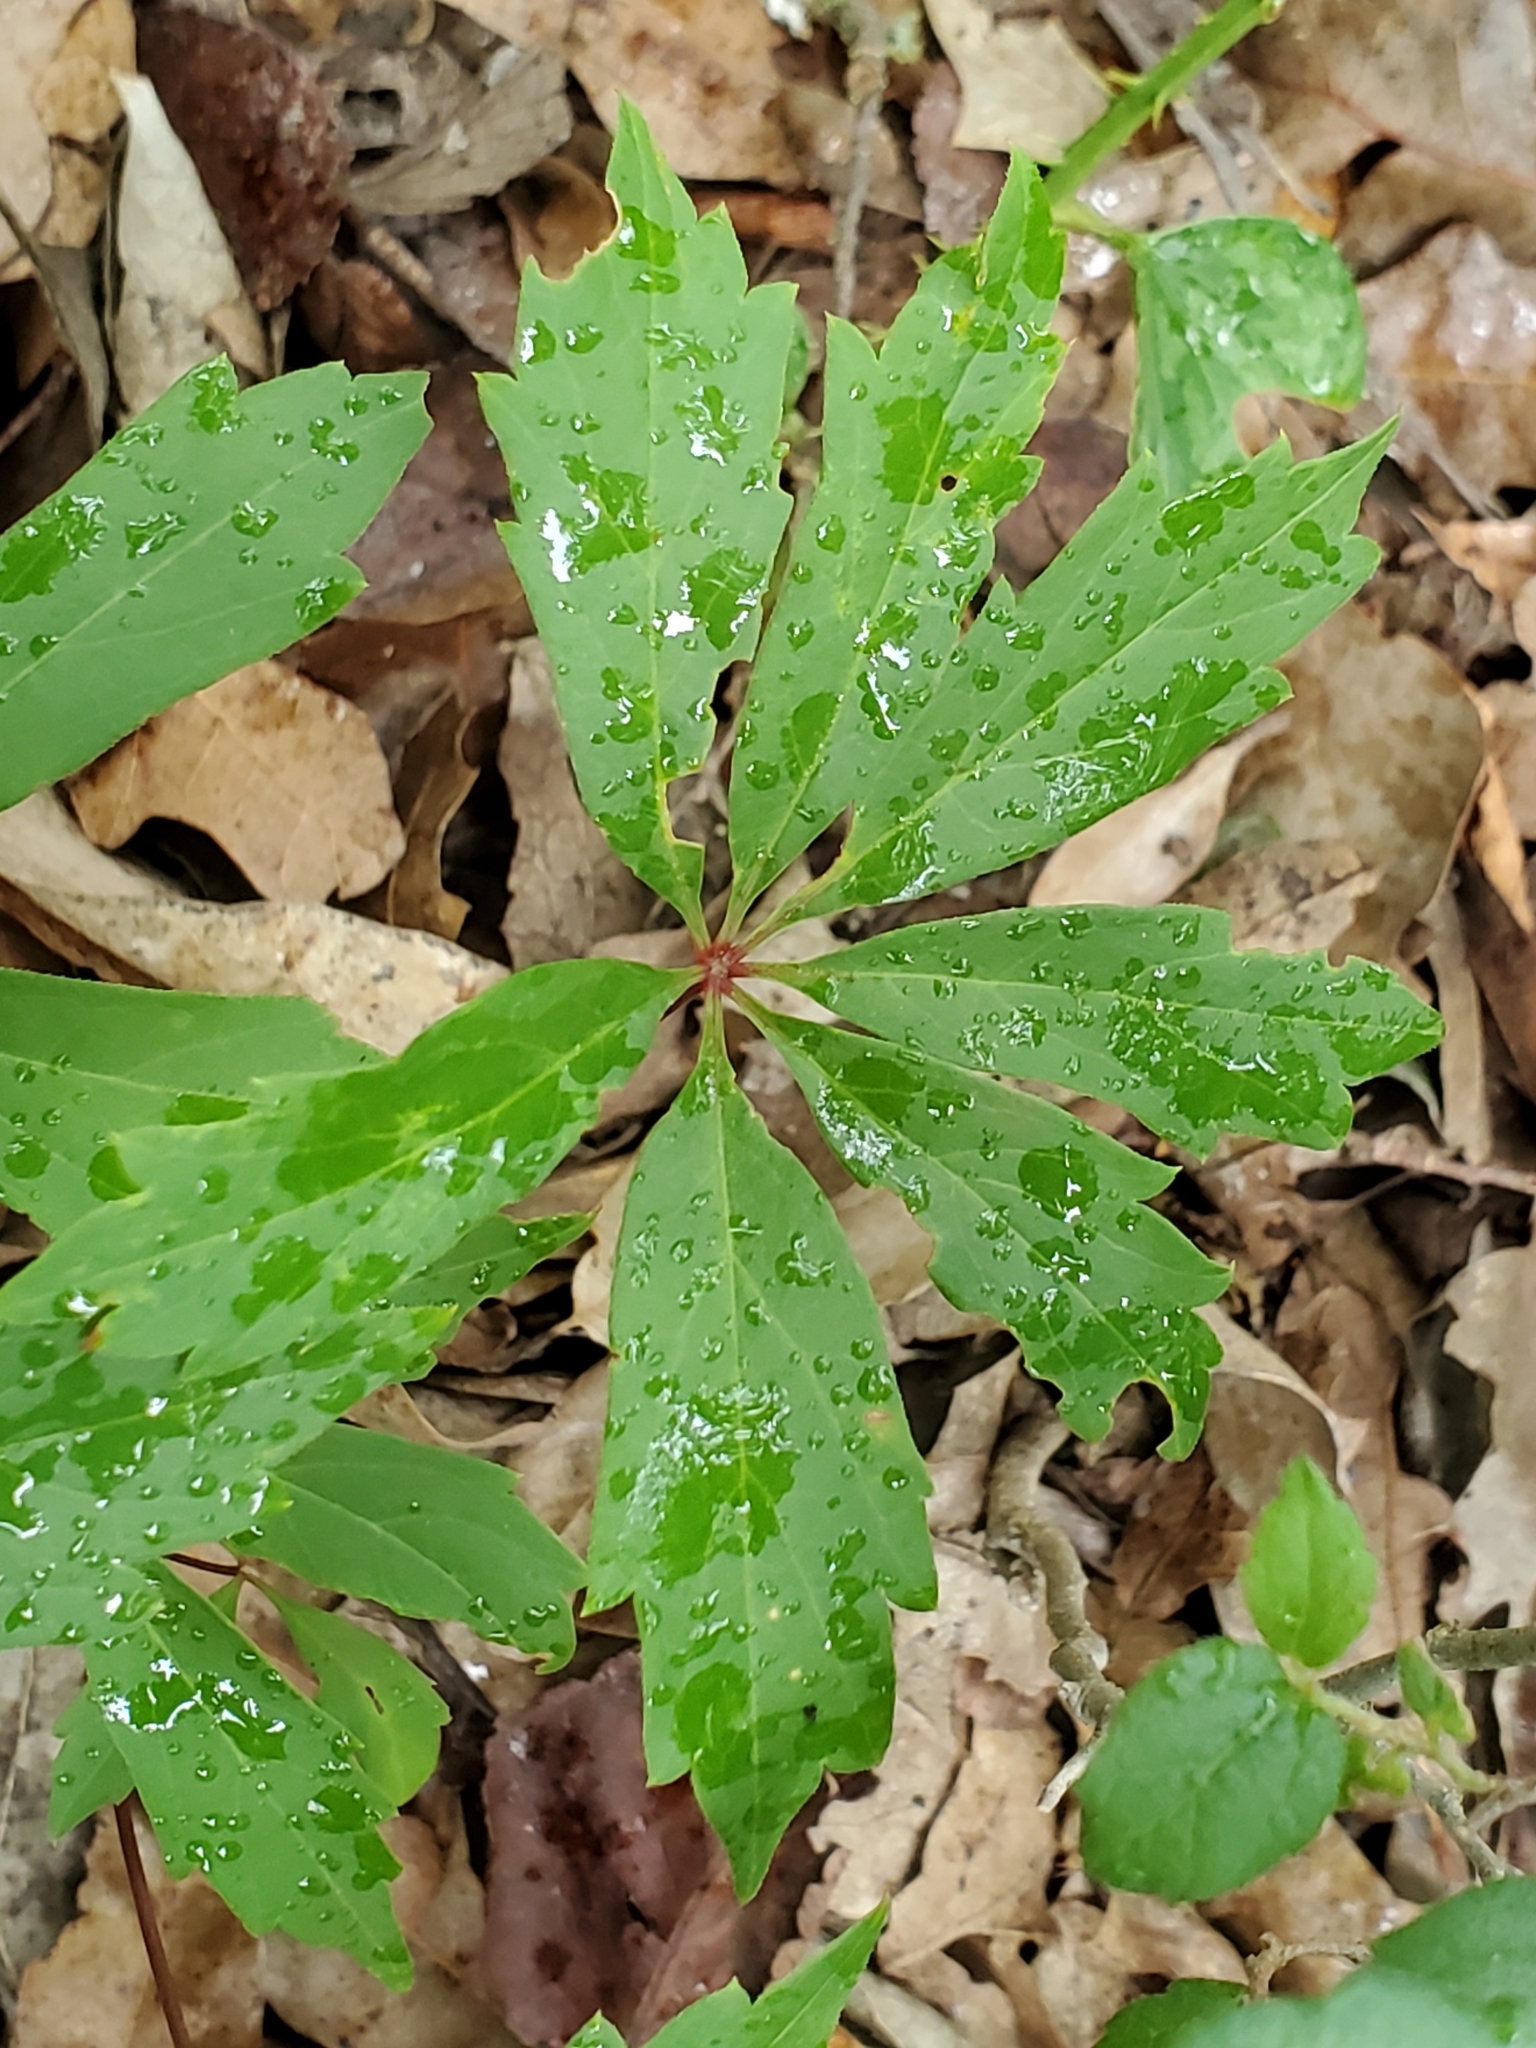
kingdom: Plantae
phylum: Tracheophyta
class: Magnoliopsida
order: Vitales
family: Vitaceae
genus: Parthenocissus
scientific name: Parthenocissus heptaphylla
